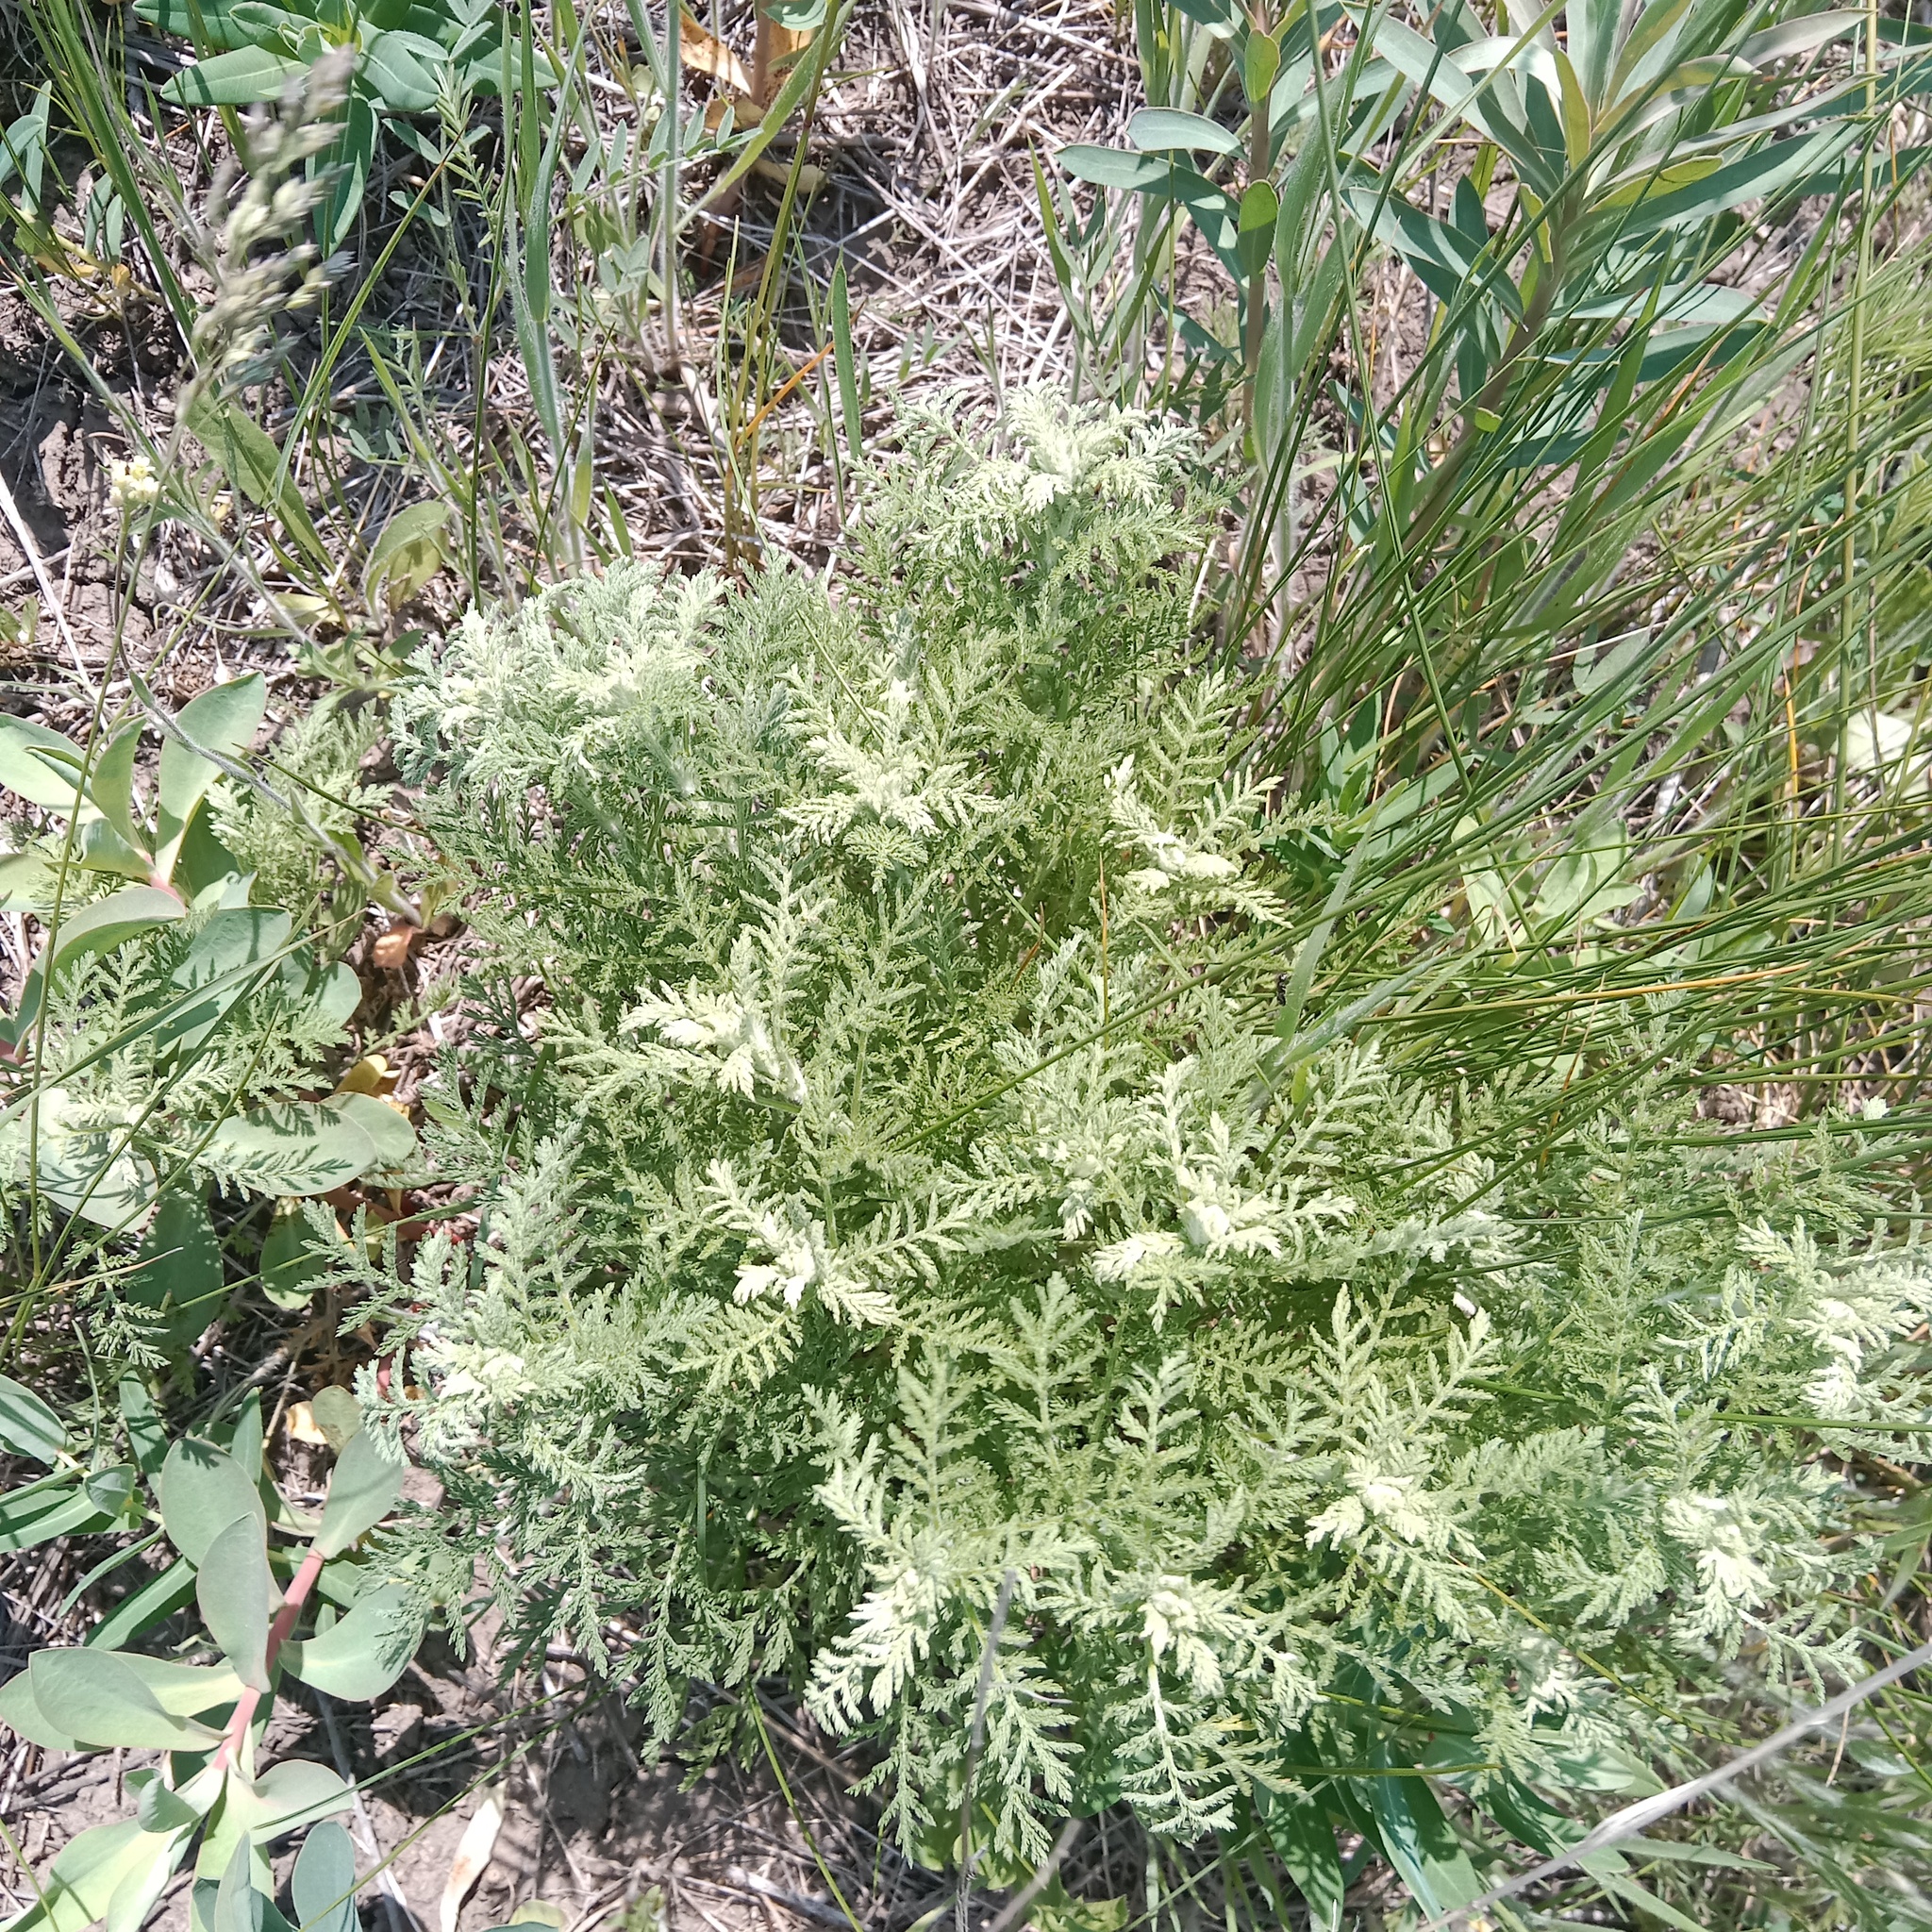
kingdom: Plantae
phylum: Tracheophyta
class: Magnoliopsida
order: Asterales
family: Asteraceae
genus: Achillea
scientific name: Achillea setacea
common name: Bristly yarrow
